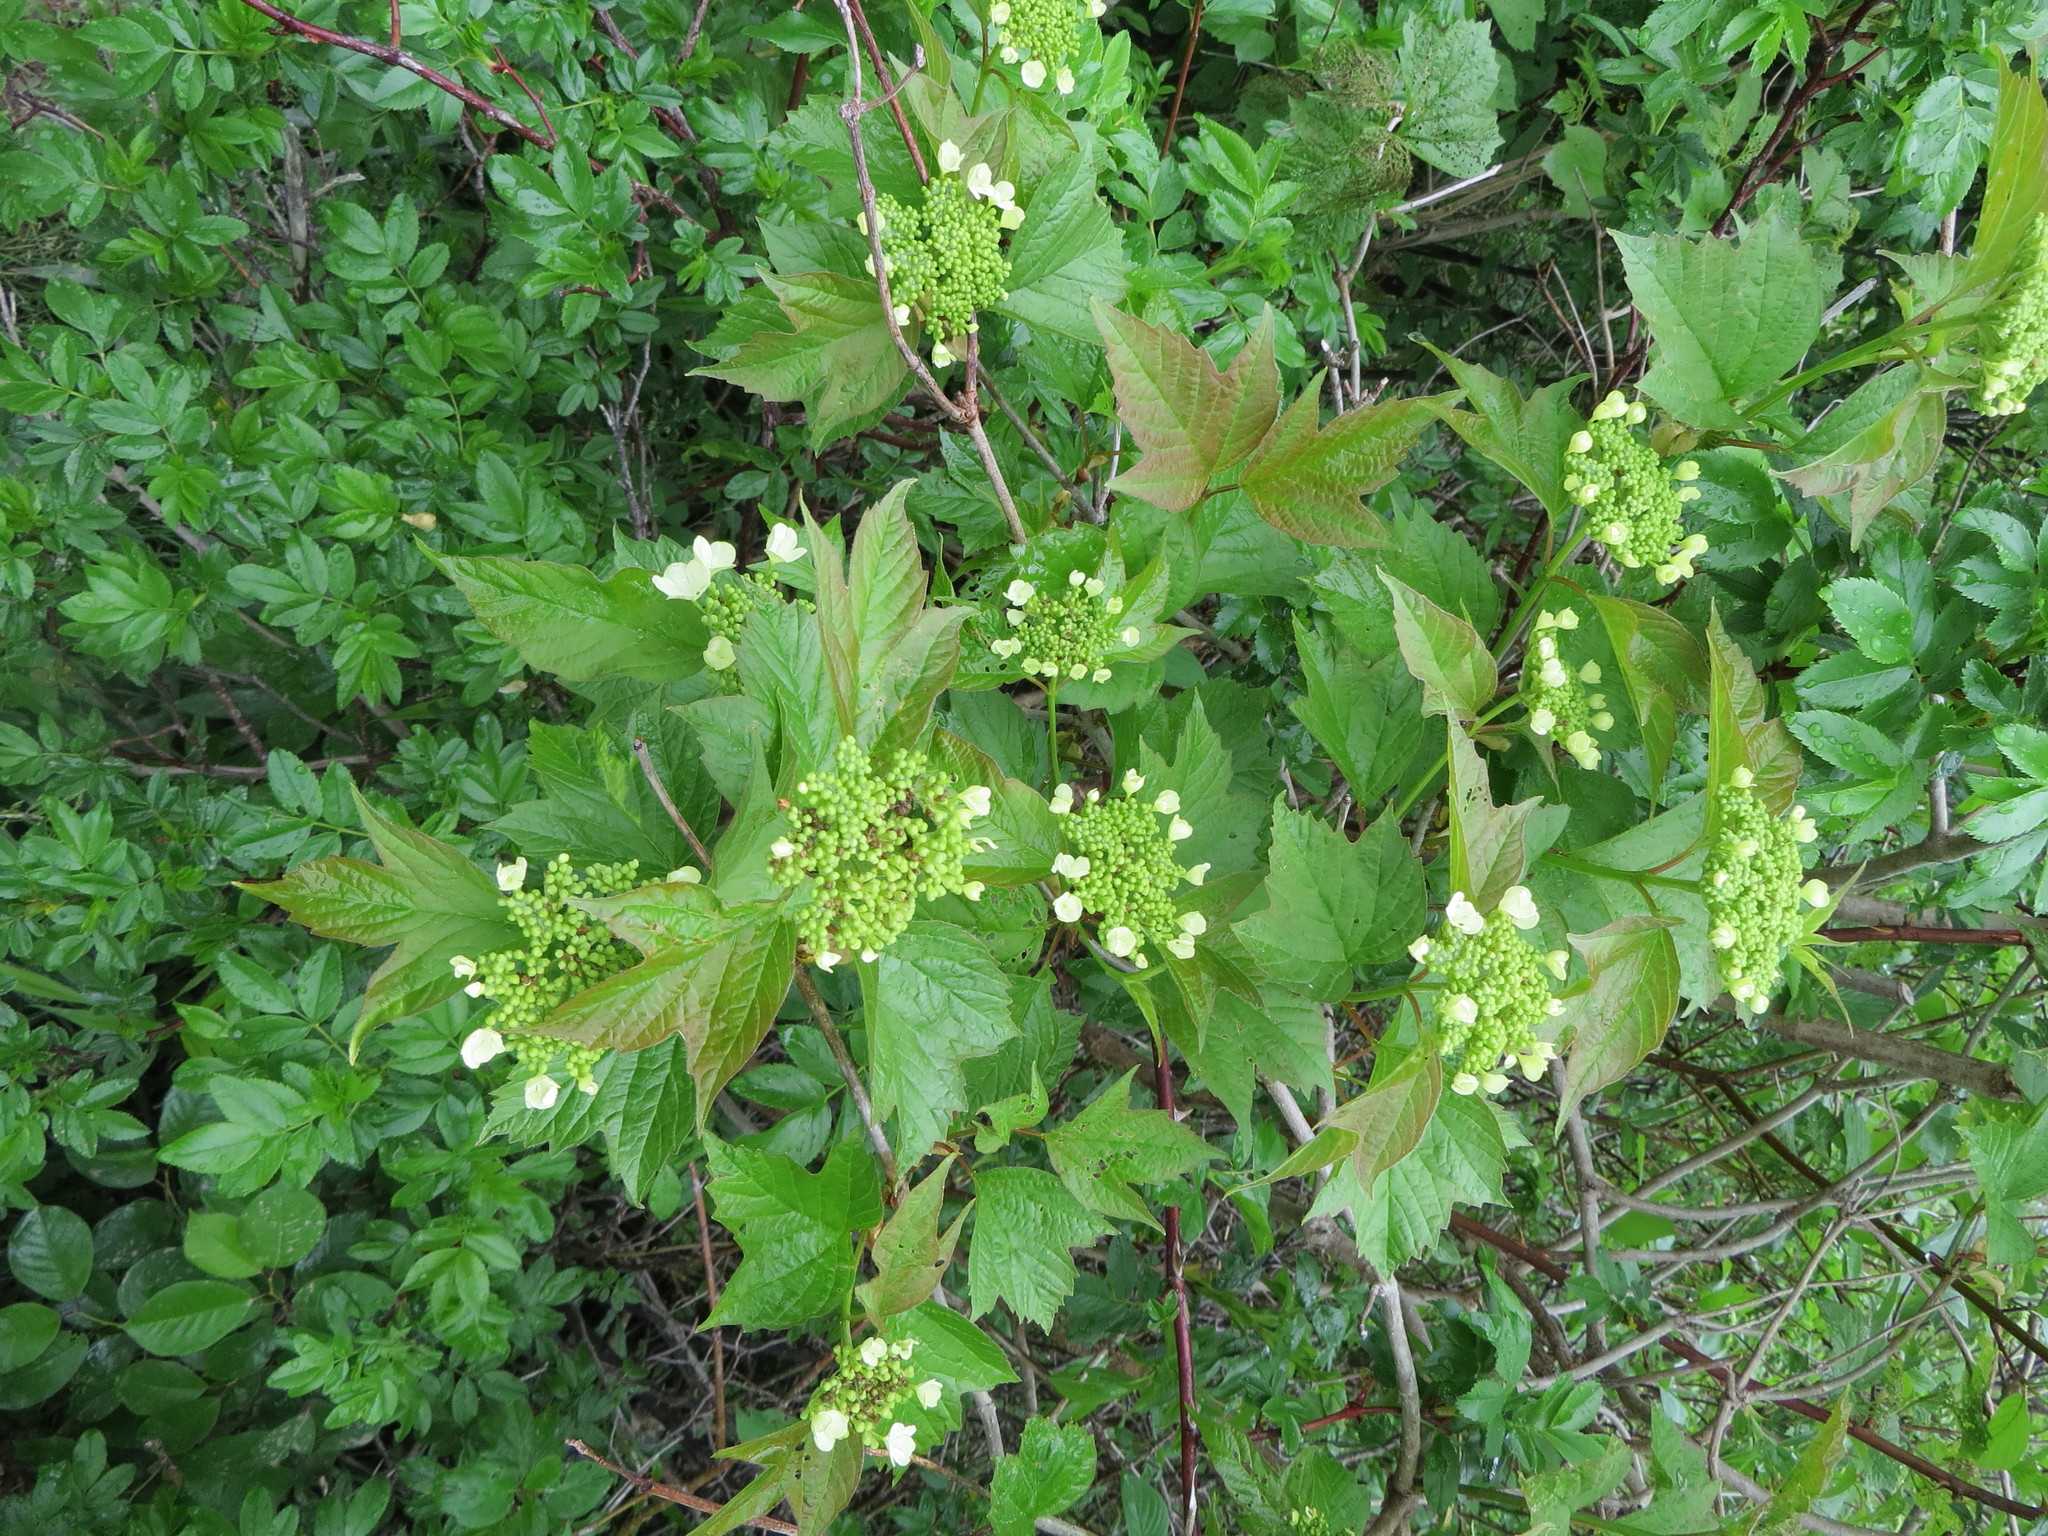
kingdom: Plantae
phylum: Tracheophyta
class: Magnoliopsida
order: Dipsacales
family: Viburnaceae
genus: Viburnum
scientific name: Viburnum opulus
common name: Guelder-rose
